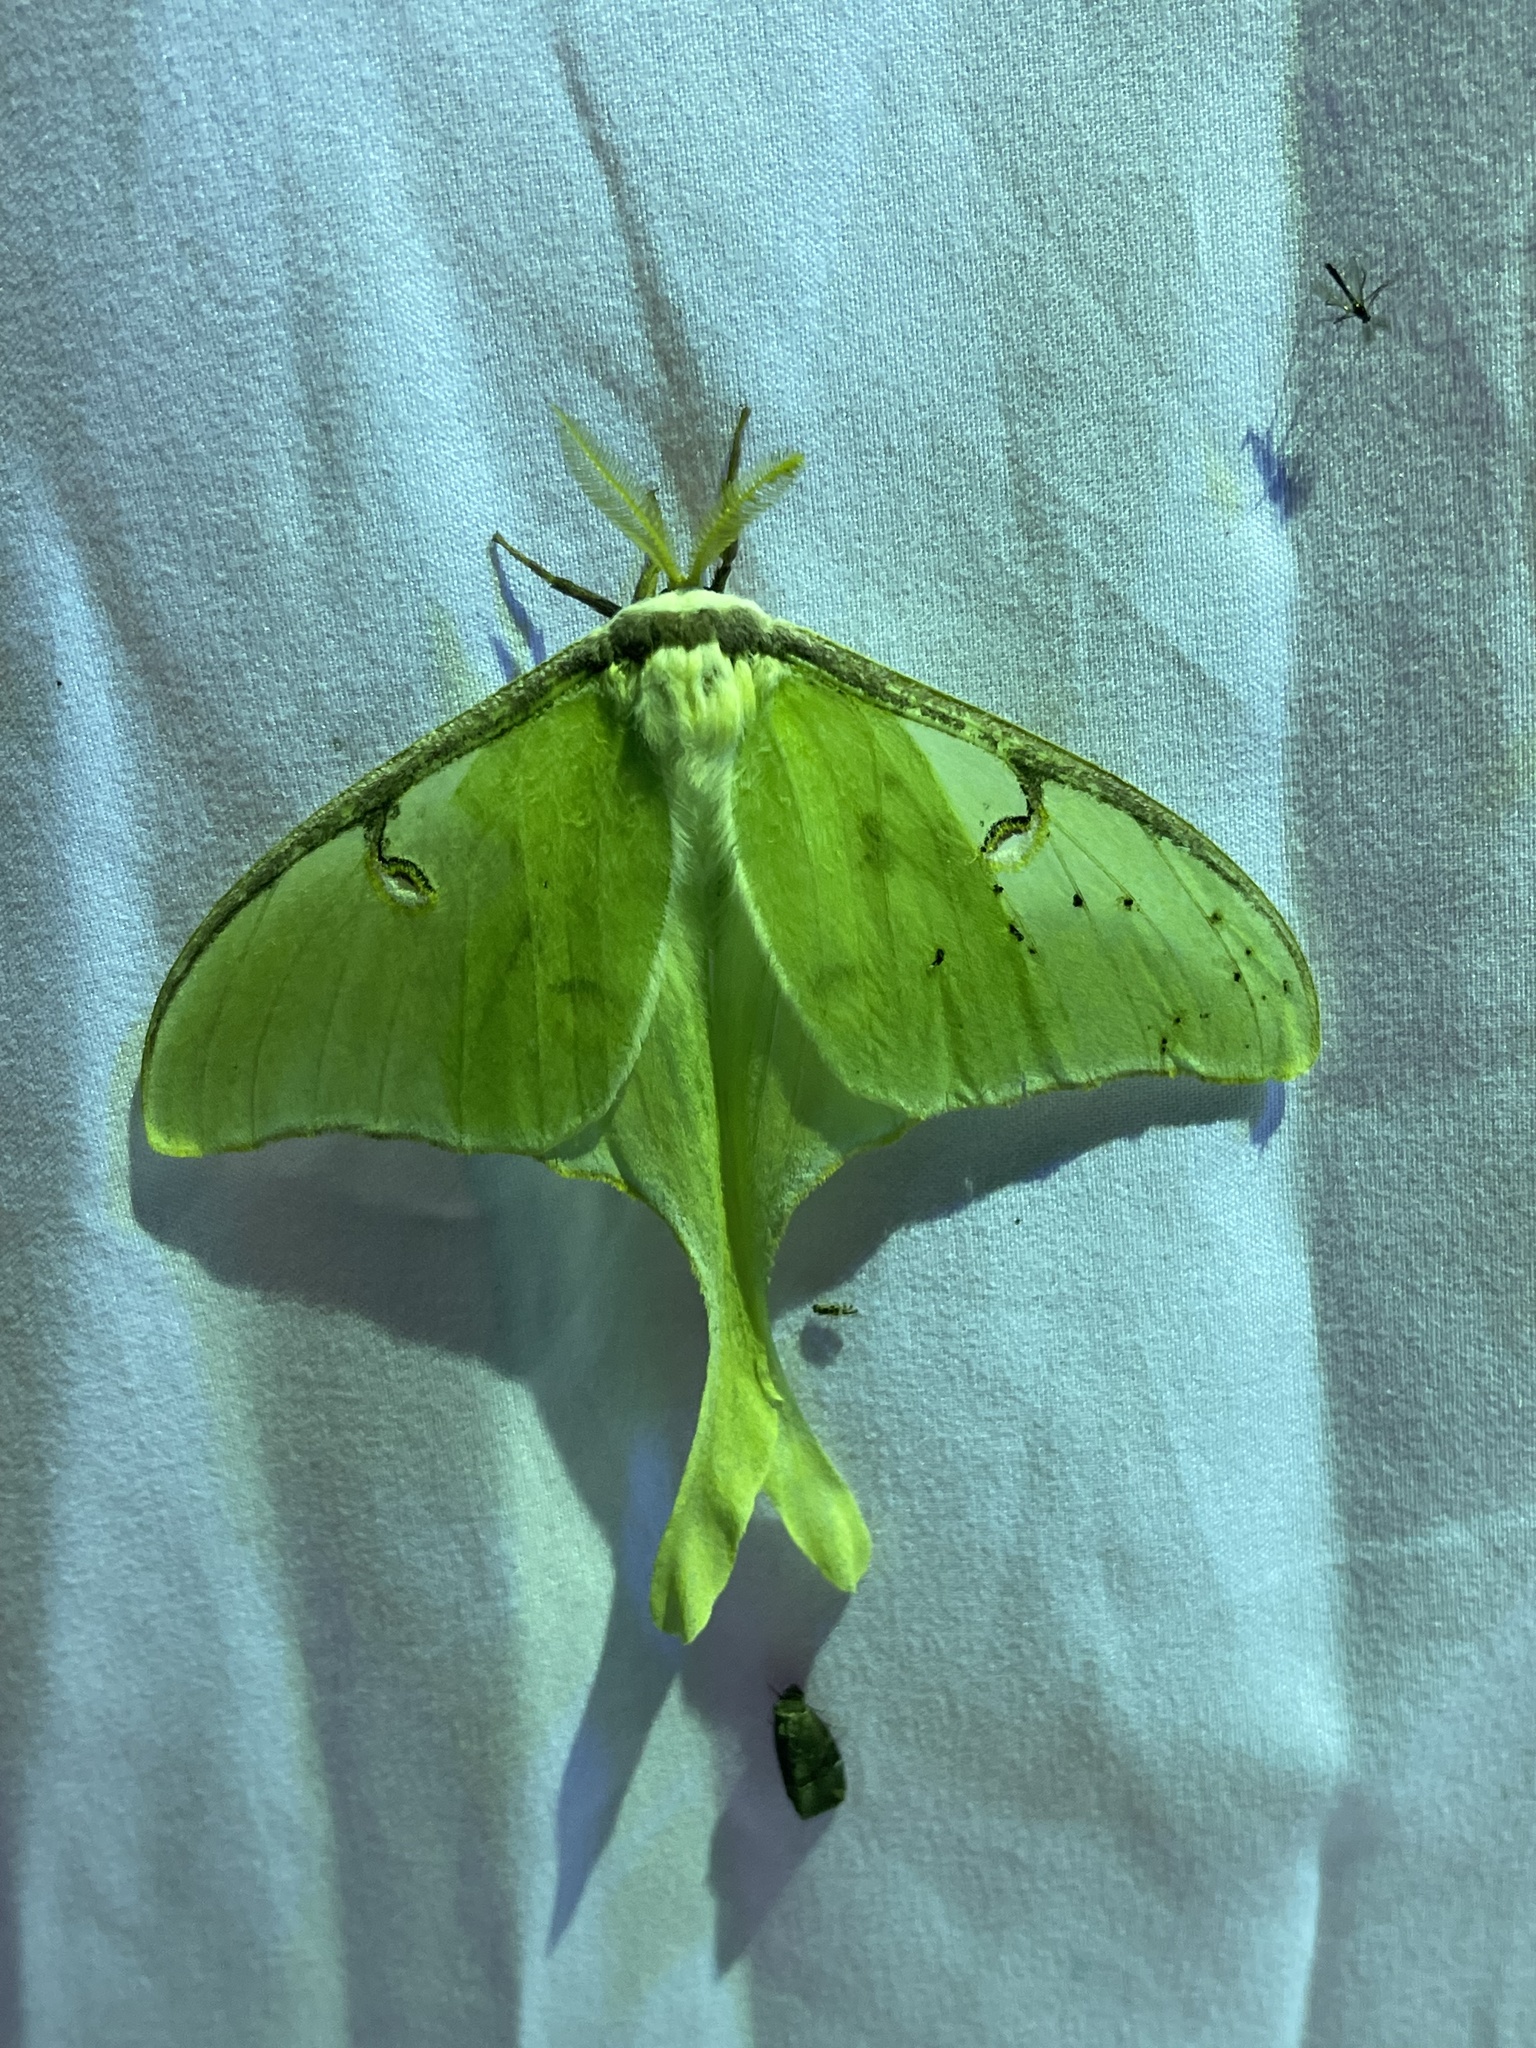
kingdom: Animalia
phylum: Arthropoda
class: Insecta
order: Lepidoptera
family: Saturniidae
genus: Actias
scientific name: Actias luna
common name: Luna moth
